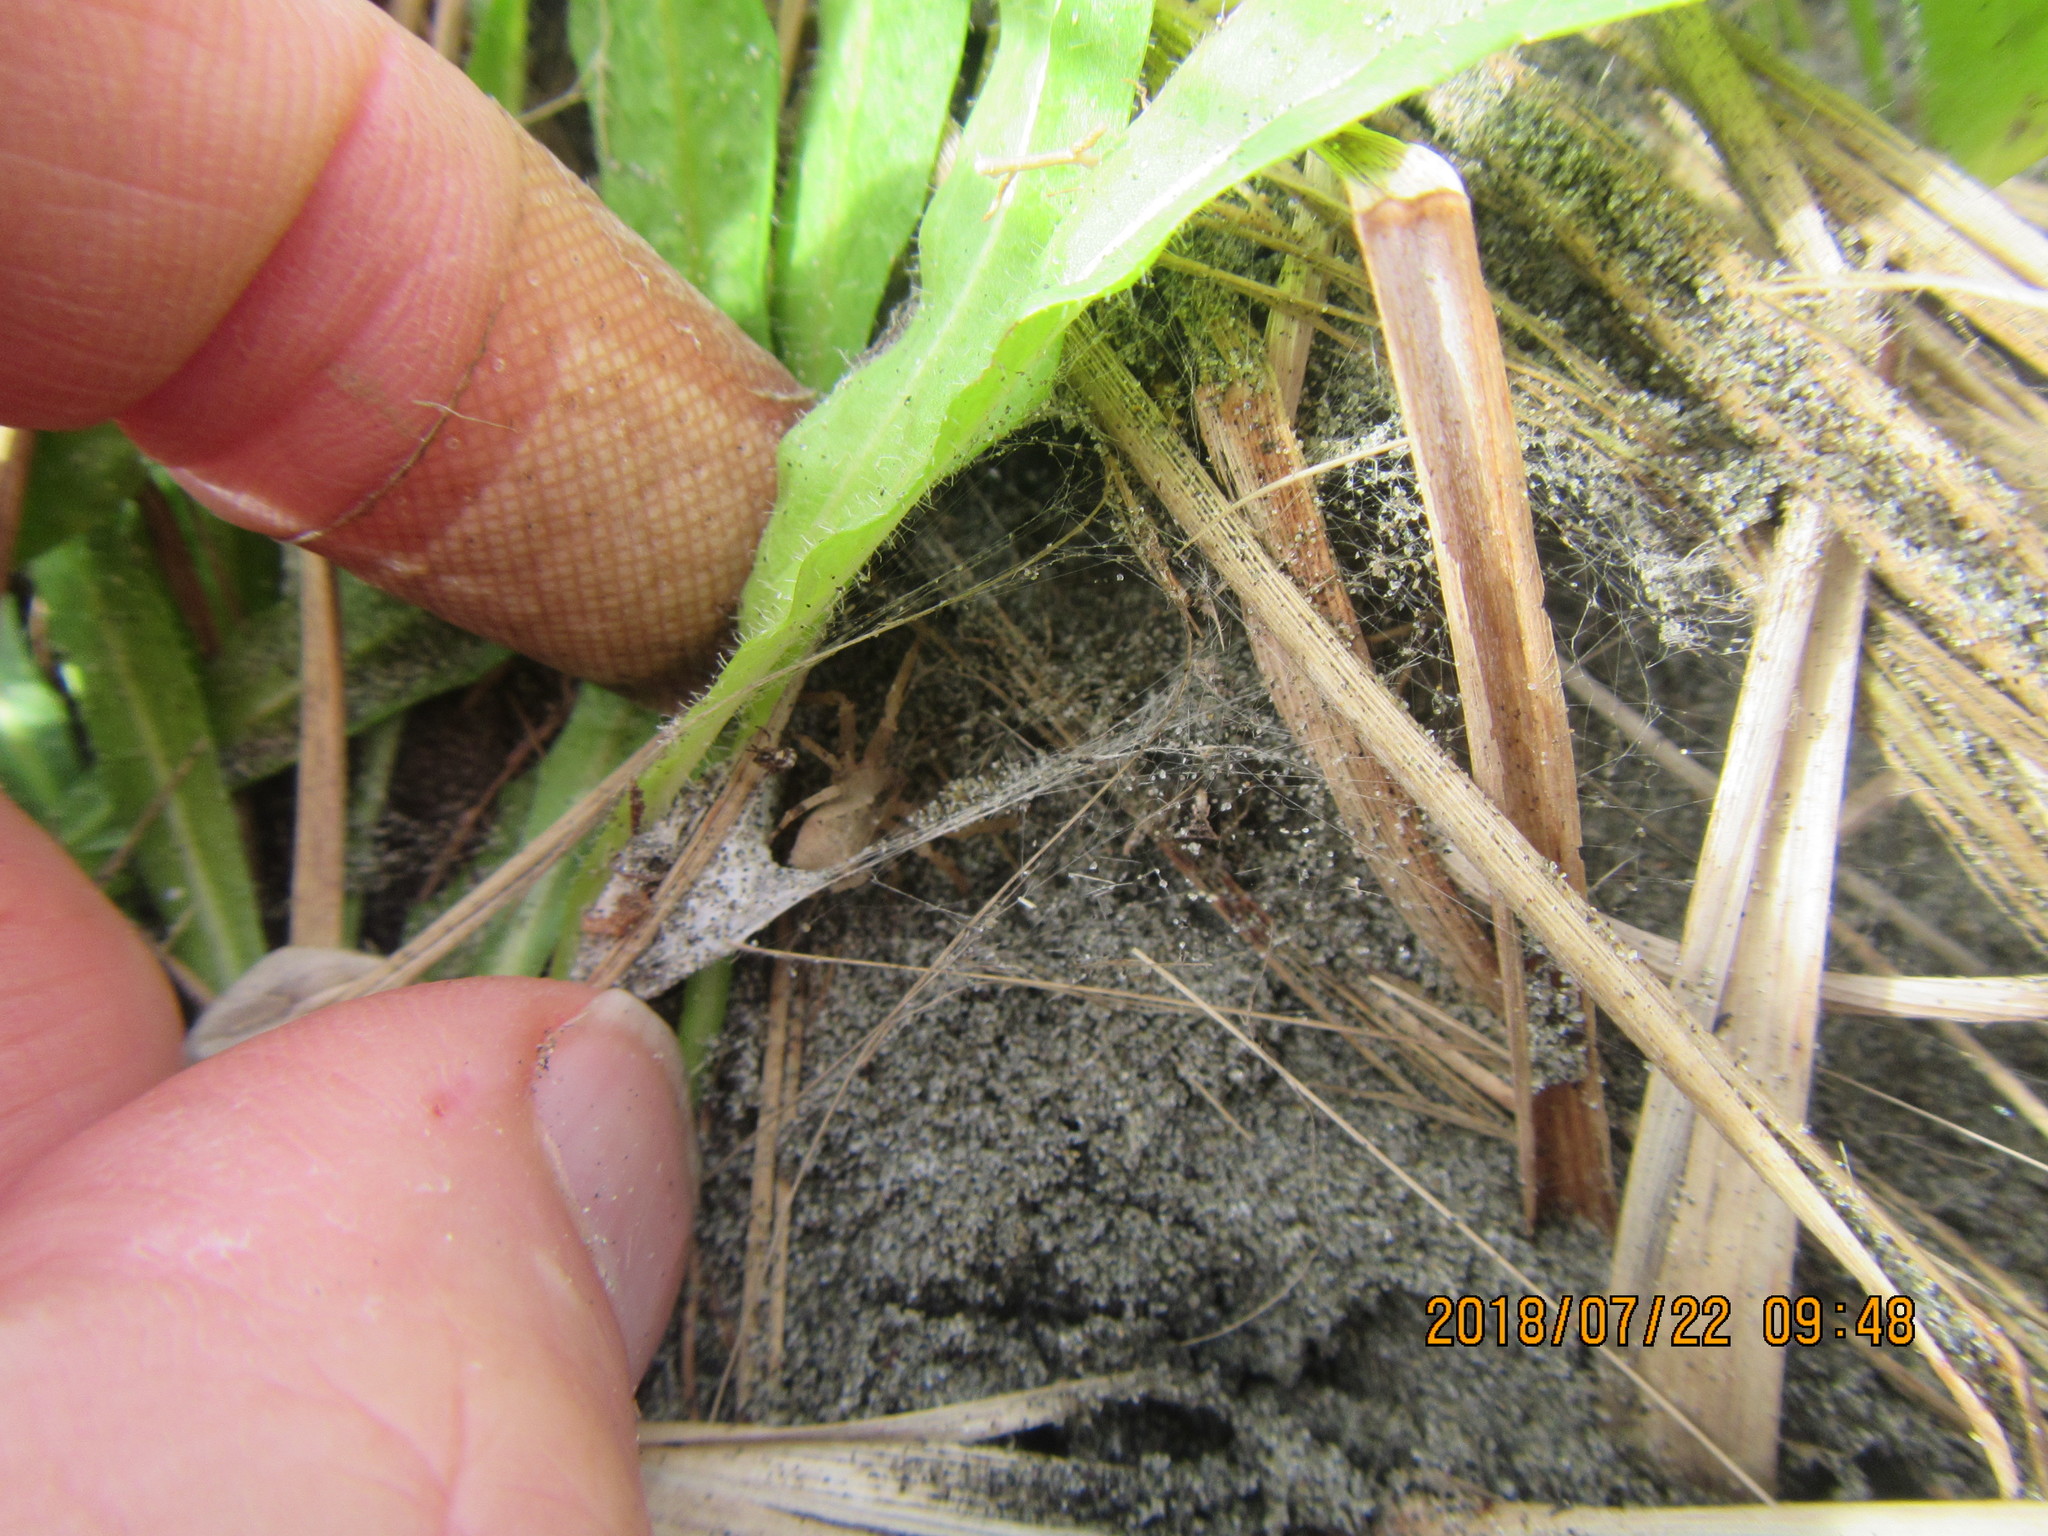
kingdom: Animalia
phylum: Arthropoda
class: Arachnida
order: Araneae
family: Theridiidae
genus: Latrodectus
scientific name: Latrodectus katipo
